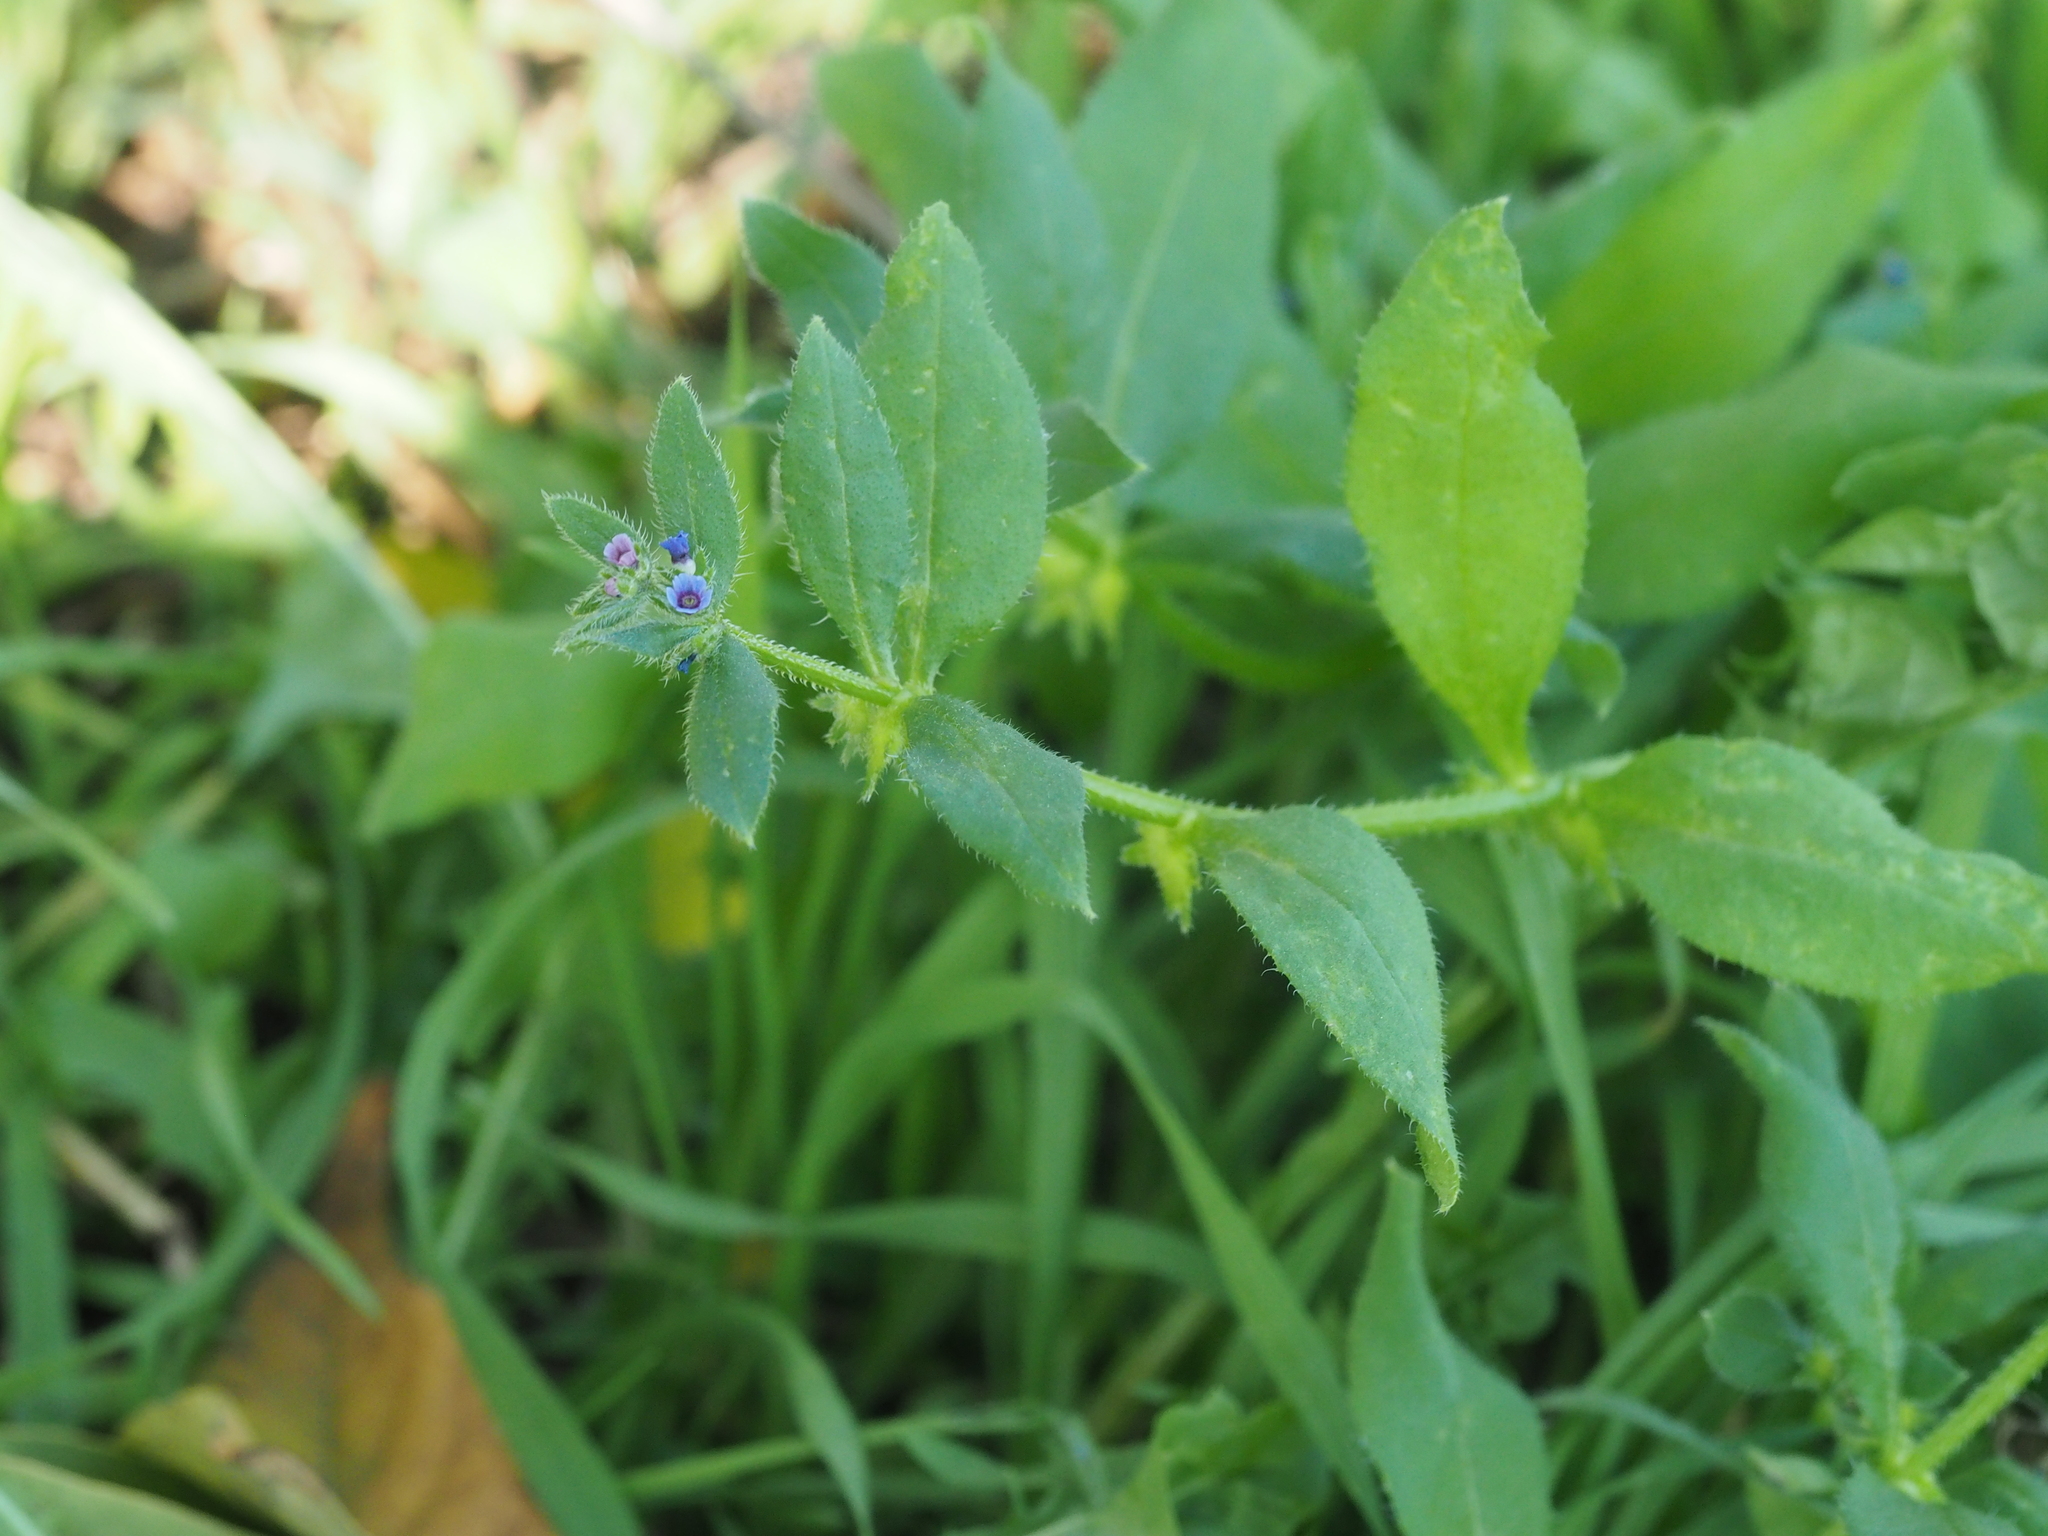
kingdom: Plantae
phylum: Tracheophyta
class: Magnoliopsida
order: Boraginales
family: Boraginaceae
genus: Asperugo
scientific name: Asperugo procumbens
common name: Madwort
